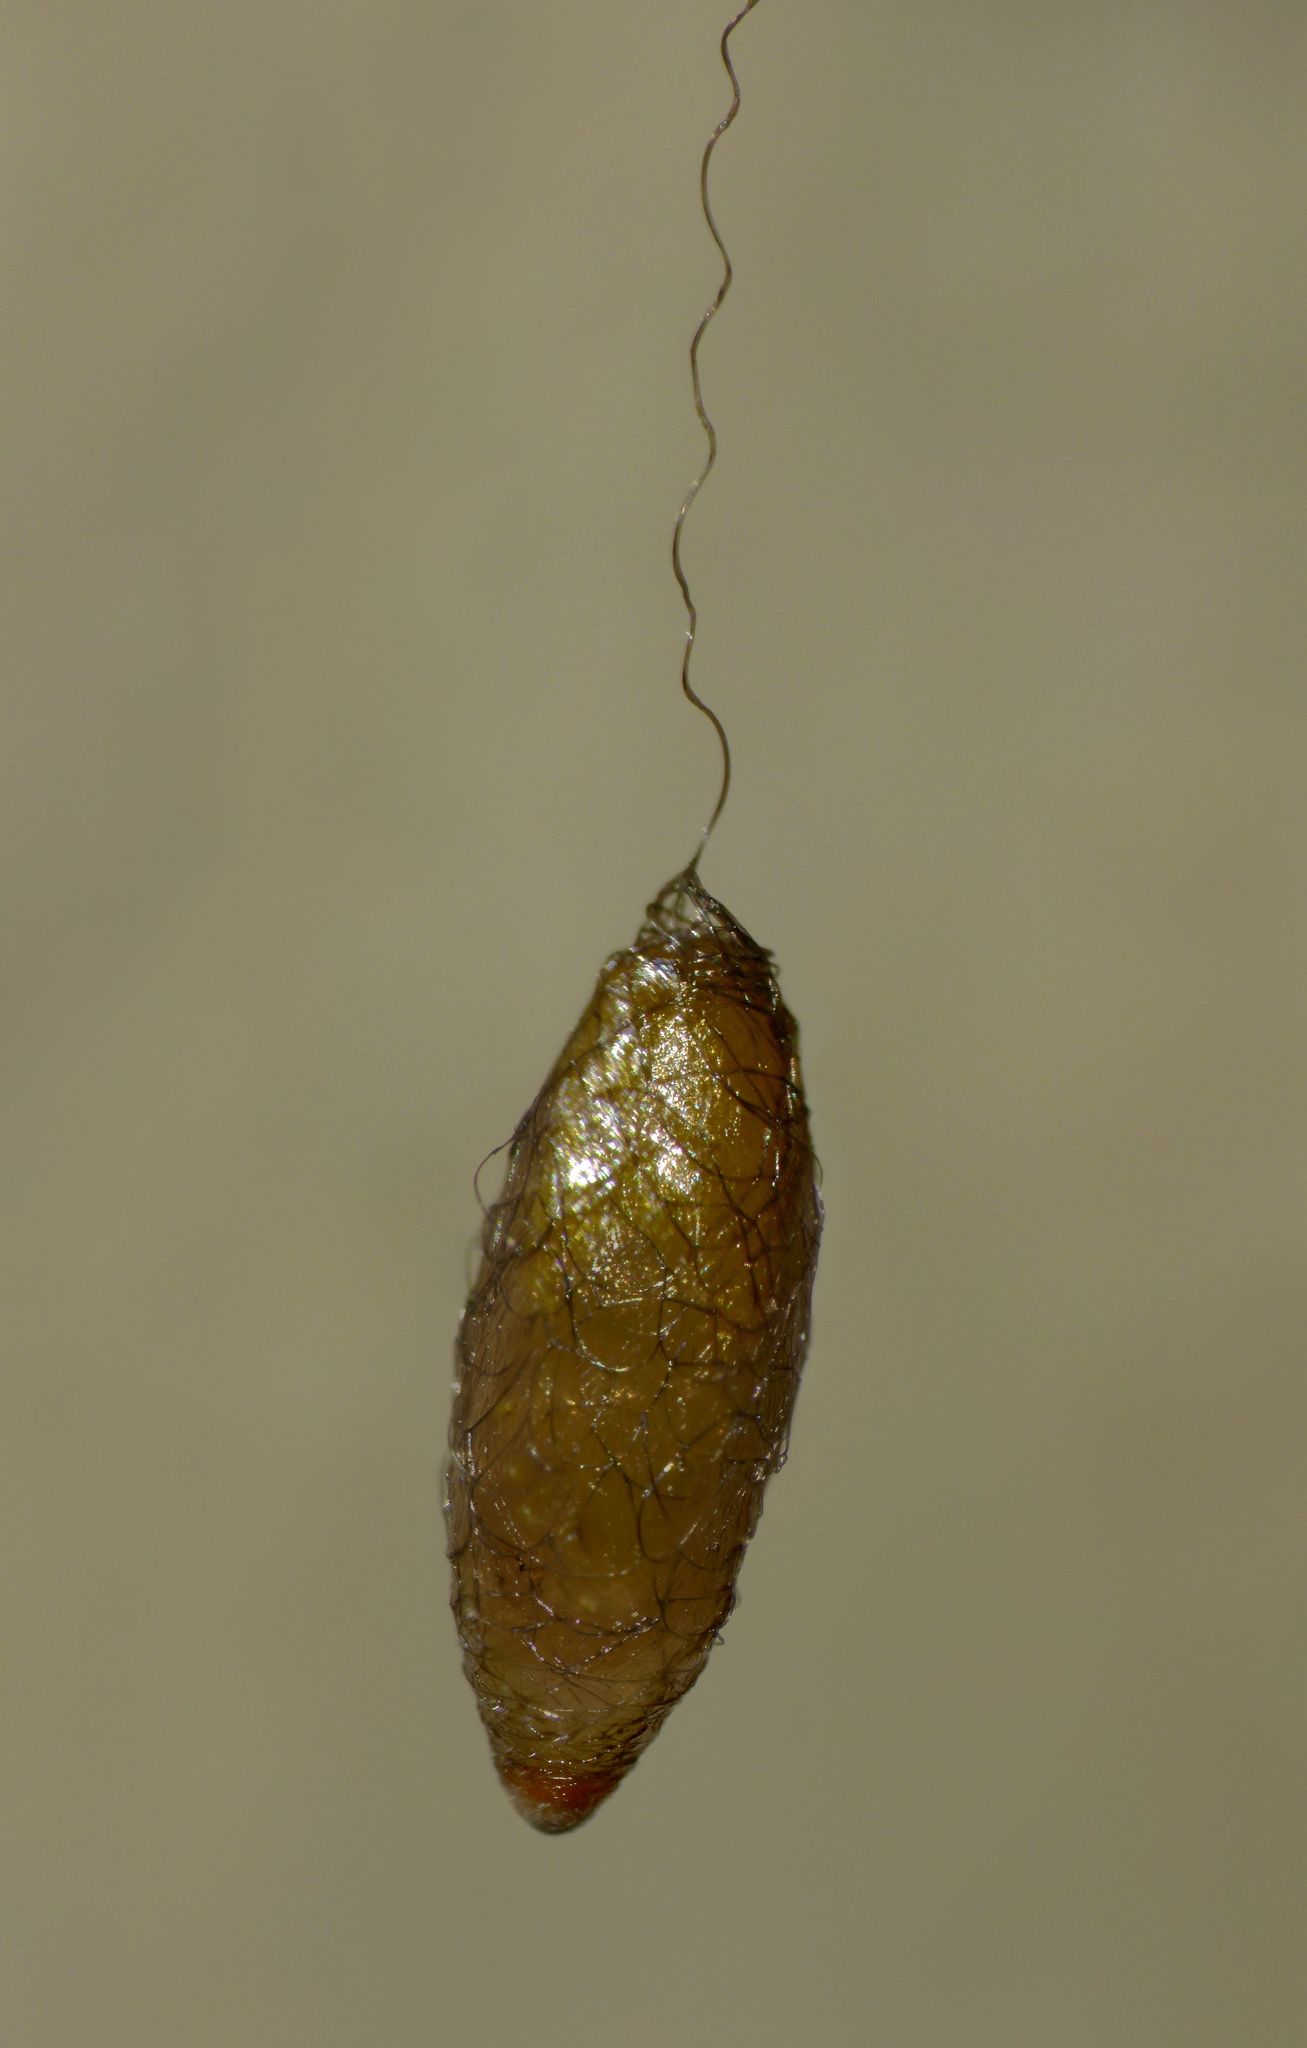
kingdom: Animalia
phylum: Arthropoda
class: Insecta
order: Hymenoptera
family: Braconidae
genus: Meteorus
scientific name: Meteorus pulchricornis
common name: Braconid wasp
